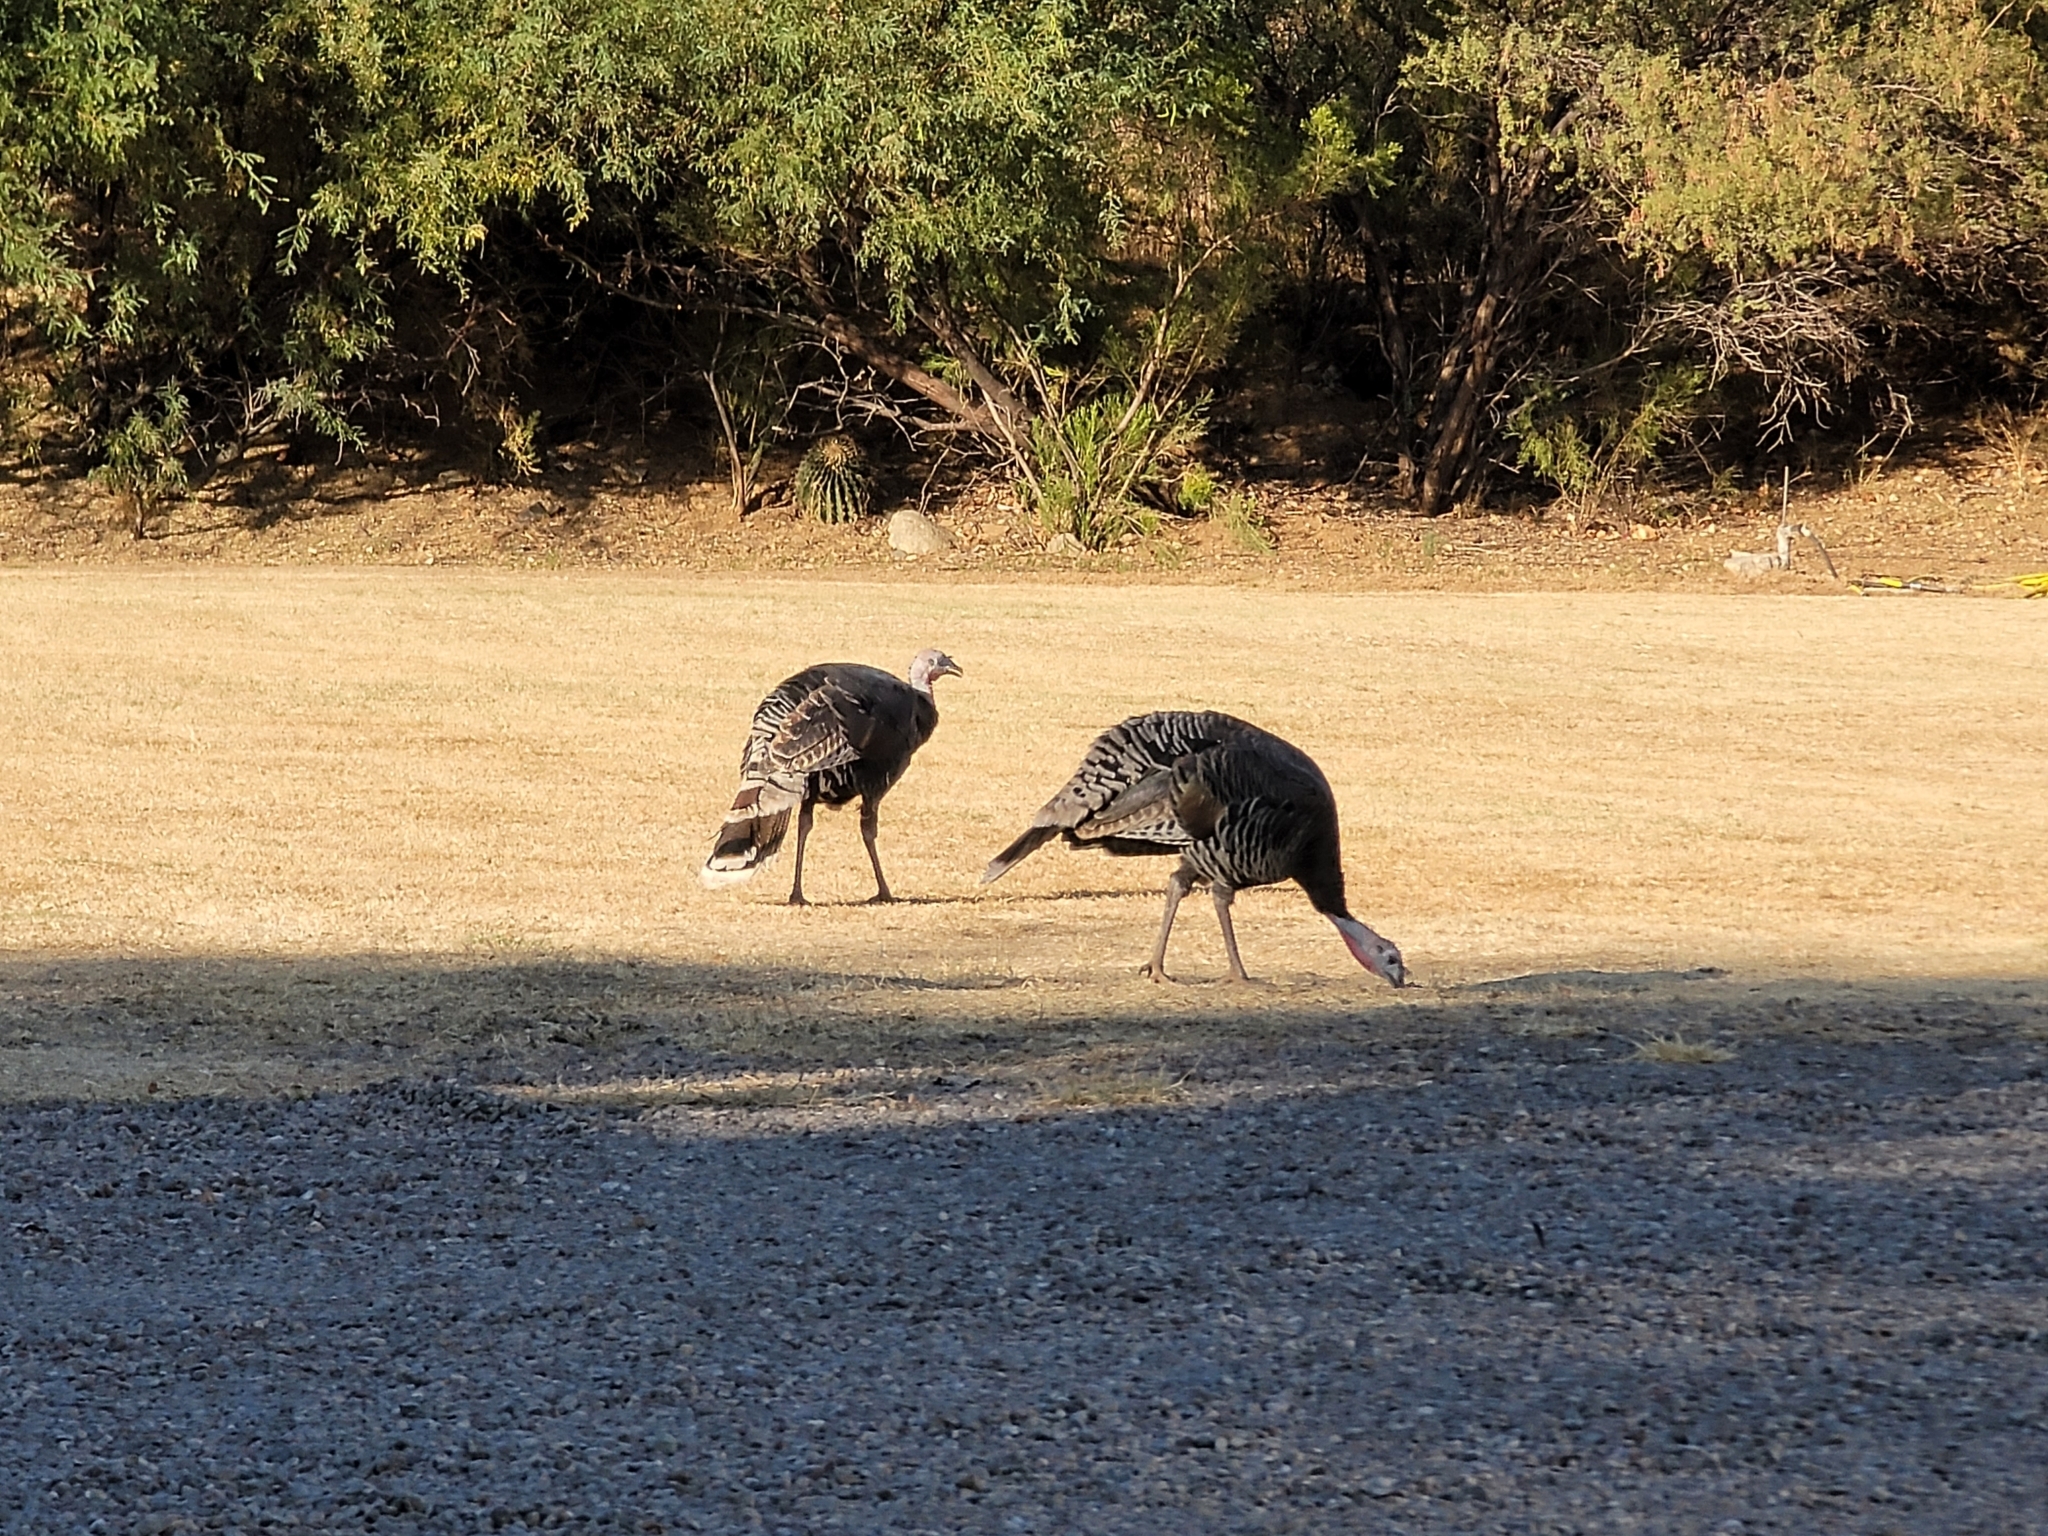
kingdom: Animalia
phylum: Chordata
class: Aves
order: Galliformes
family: Phasianidae
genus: Meleagris
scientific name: Meleagris gallopavo
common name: Wild turkey
